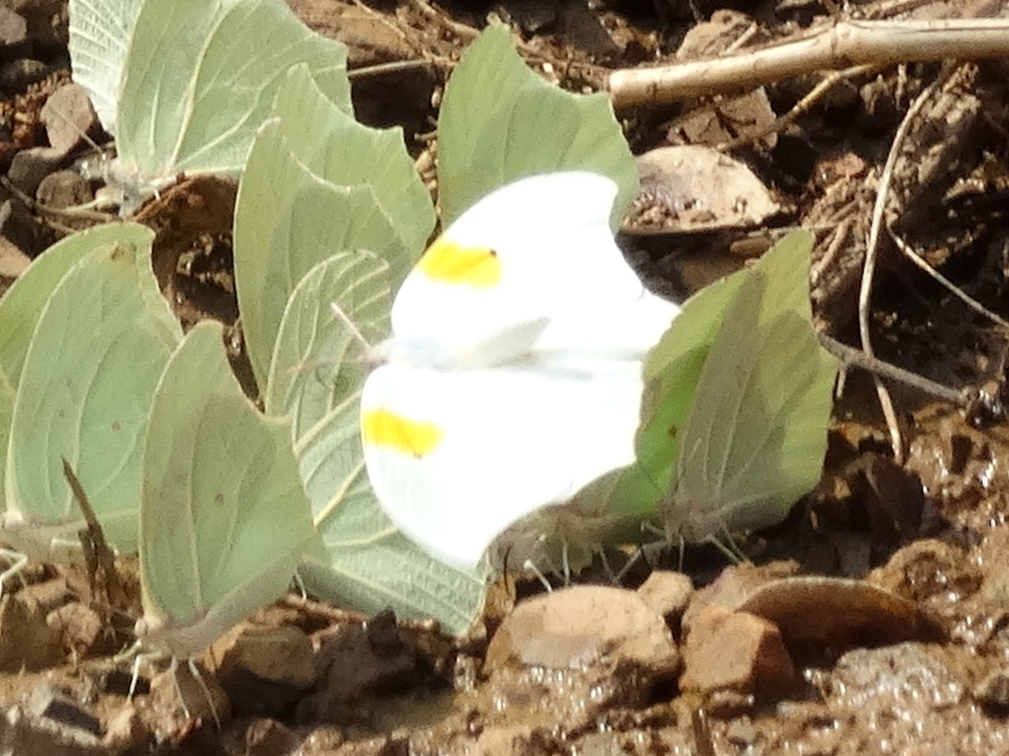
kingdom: Animalia
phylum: Arthropoda
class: Insecta
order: Lepidoptera
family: Pieridae
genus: Anteos
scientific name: Anteos clorinde
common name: White angled sulphur
